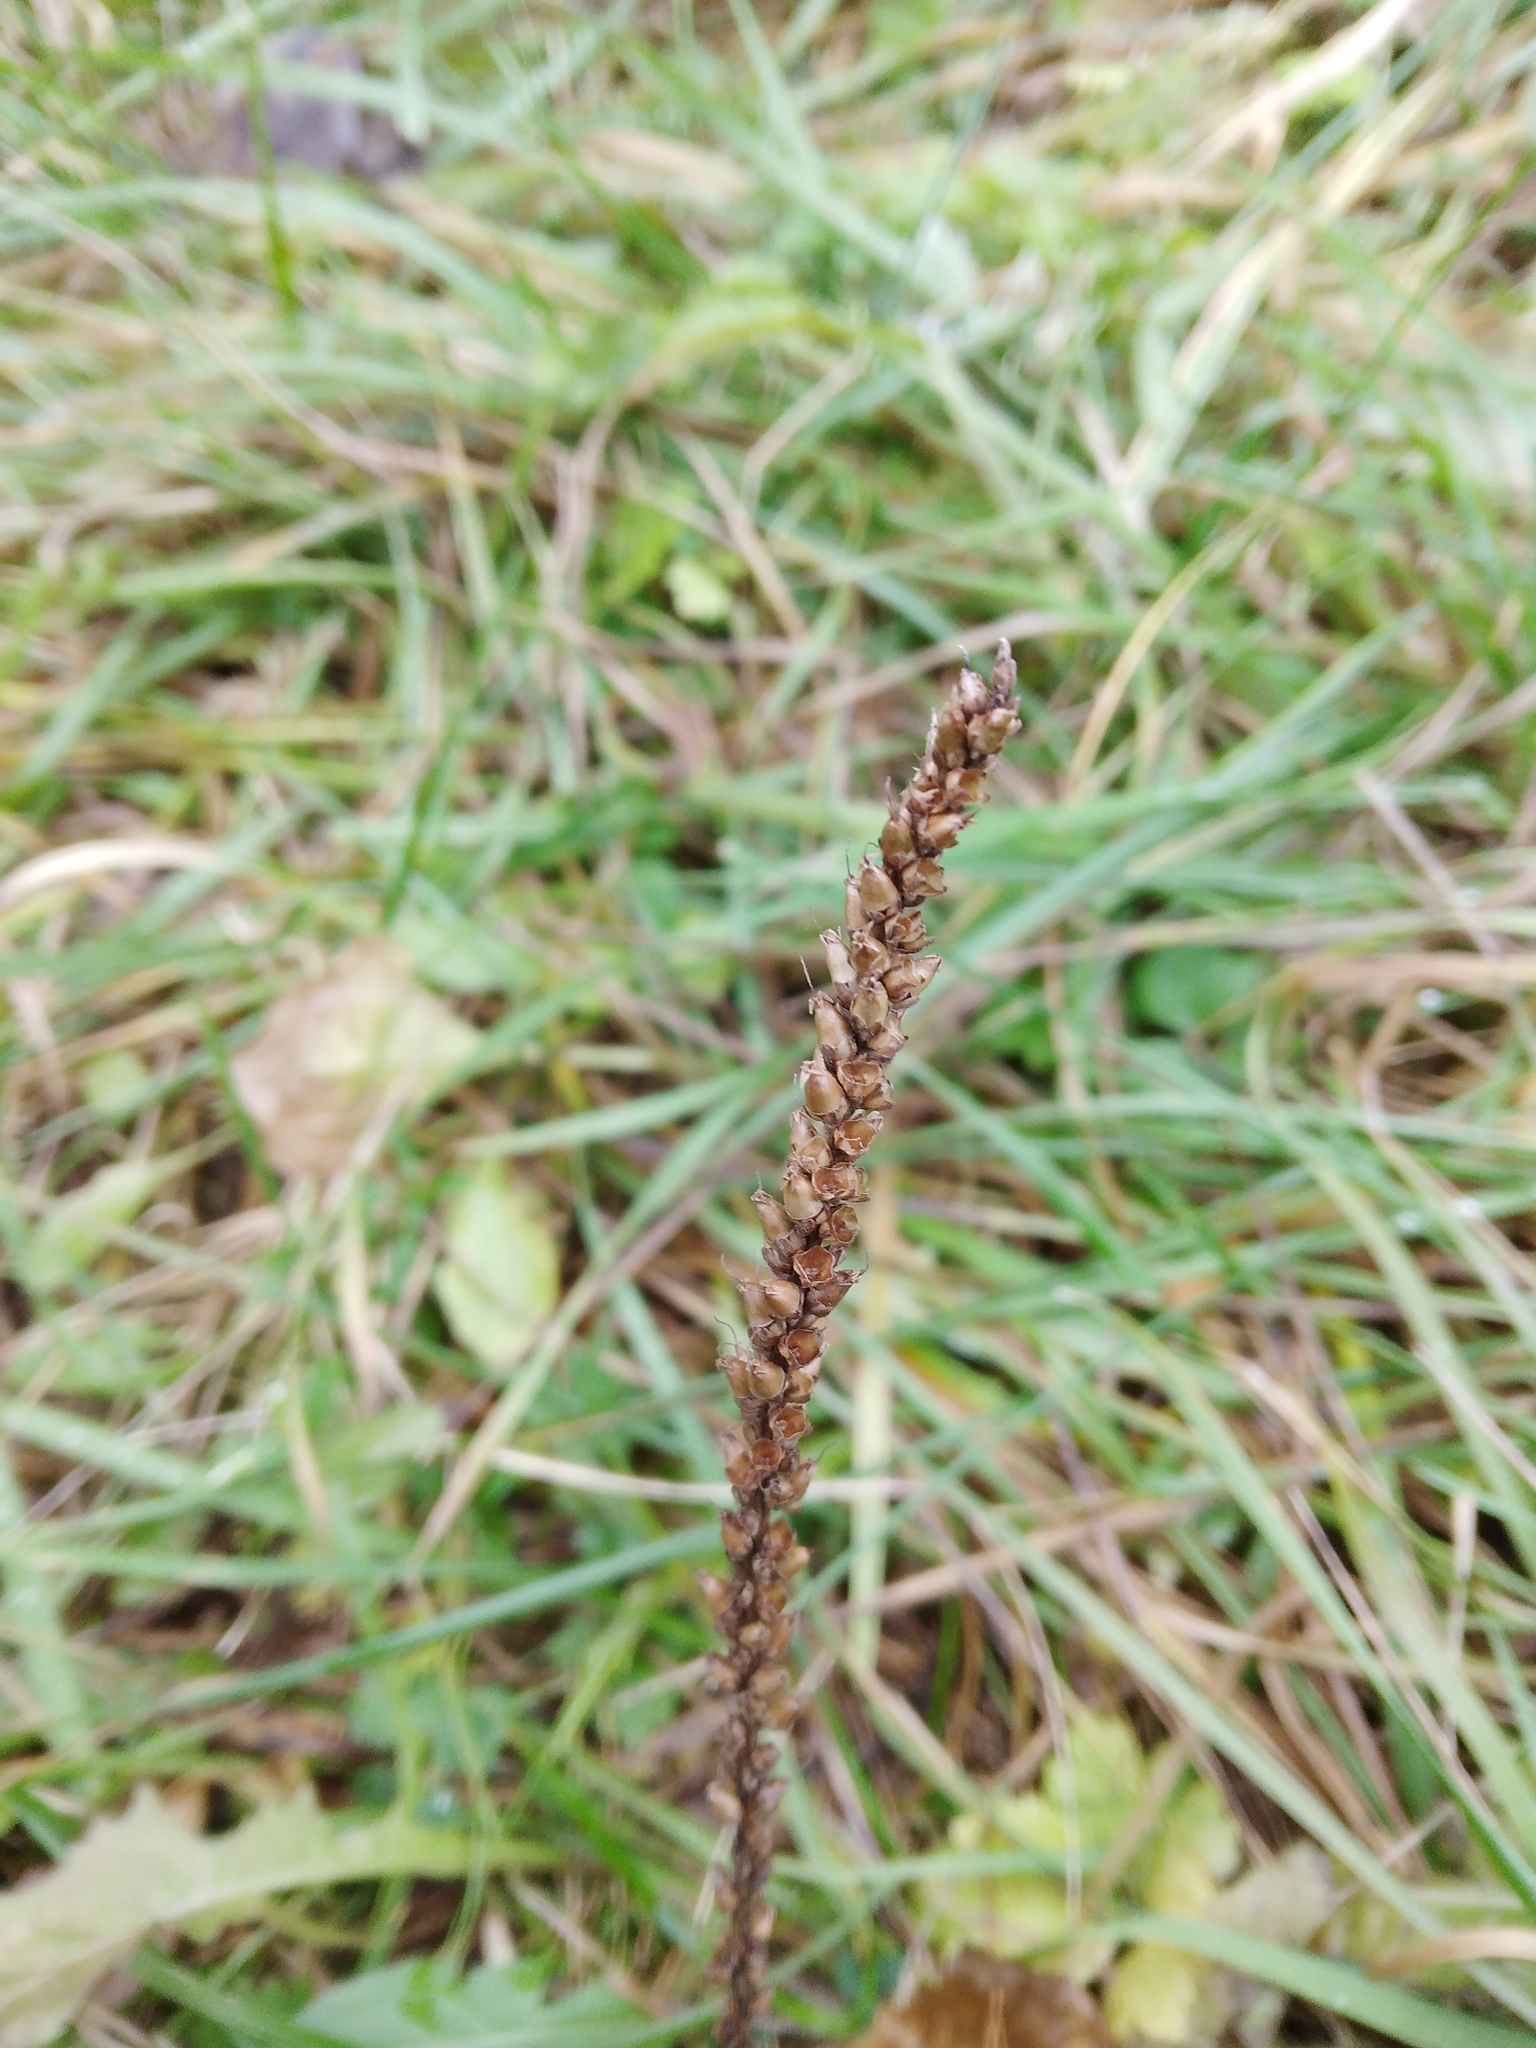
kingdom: Plantae
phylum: Tracheophyta
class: Magnoliopsida
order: Lamiales
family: Plantaginaceae
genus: Plantago
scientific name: Plantago major
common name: Common plantain
